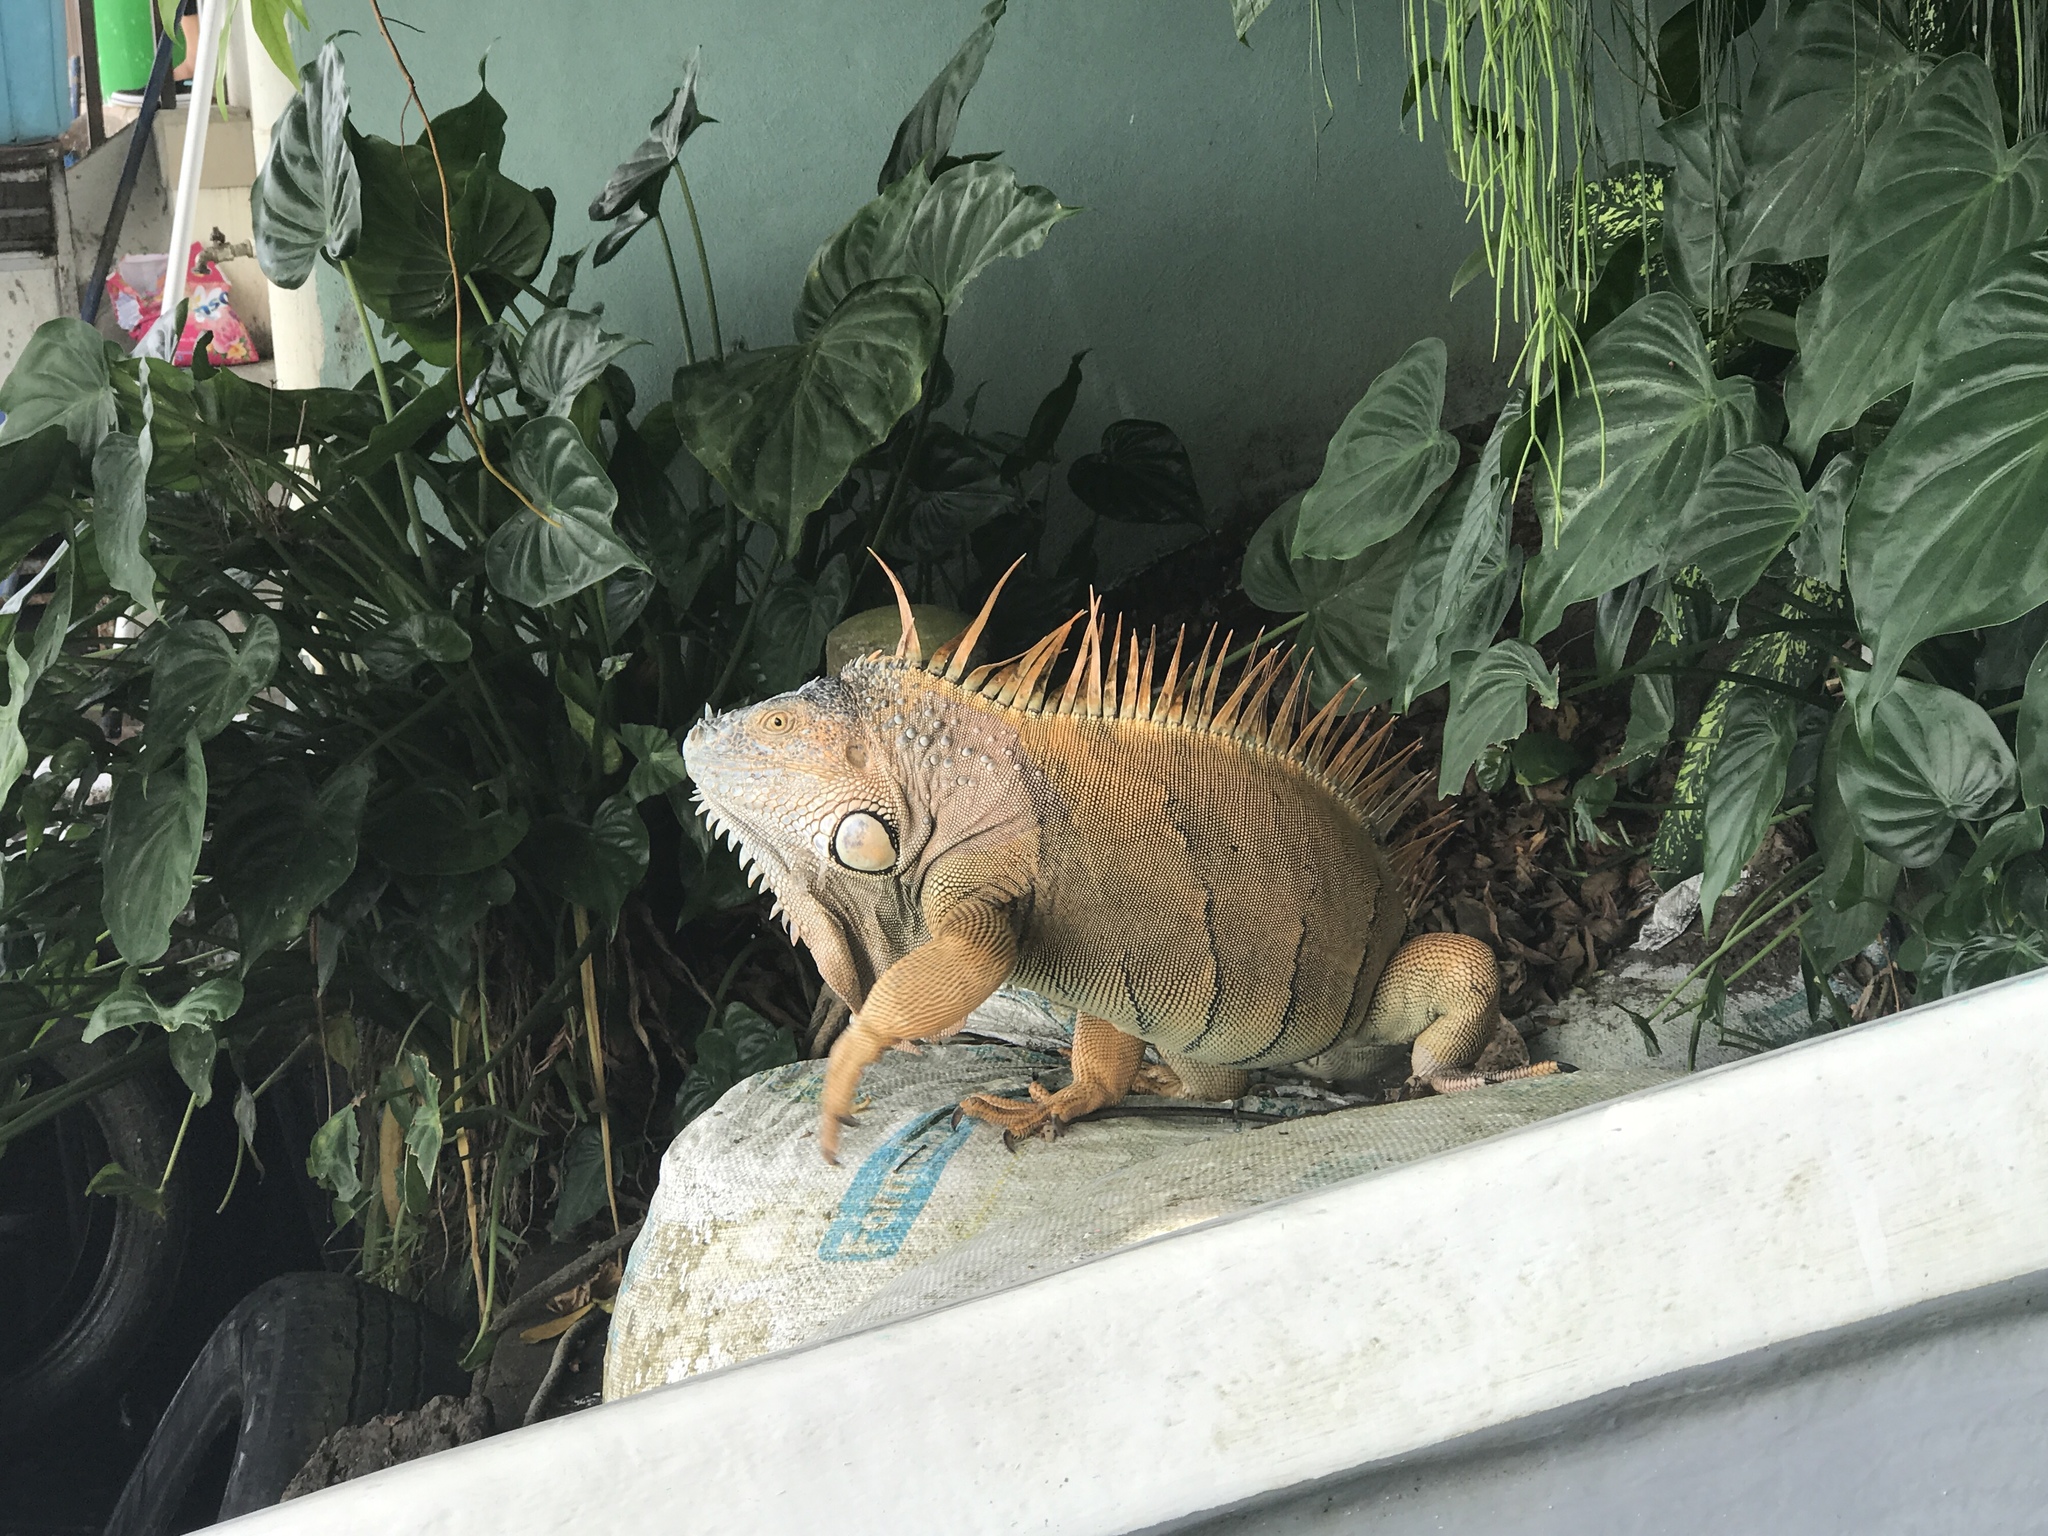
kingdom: Animalia
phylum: Chordata
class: Squamata
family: Iguanidae
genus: Iguana
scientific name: Iguana iguana
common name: Green iguana
